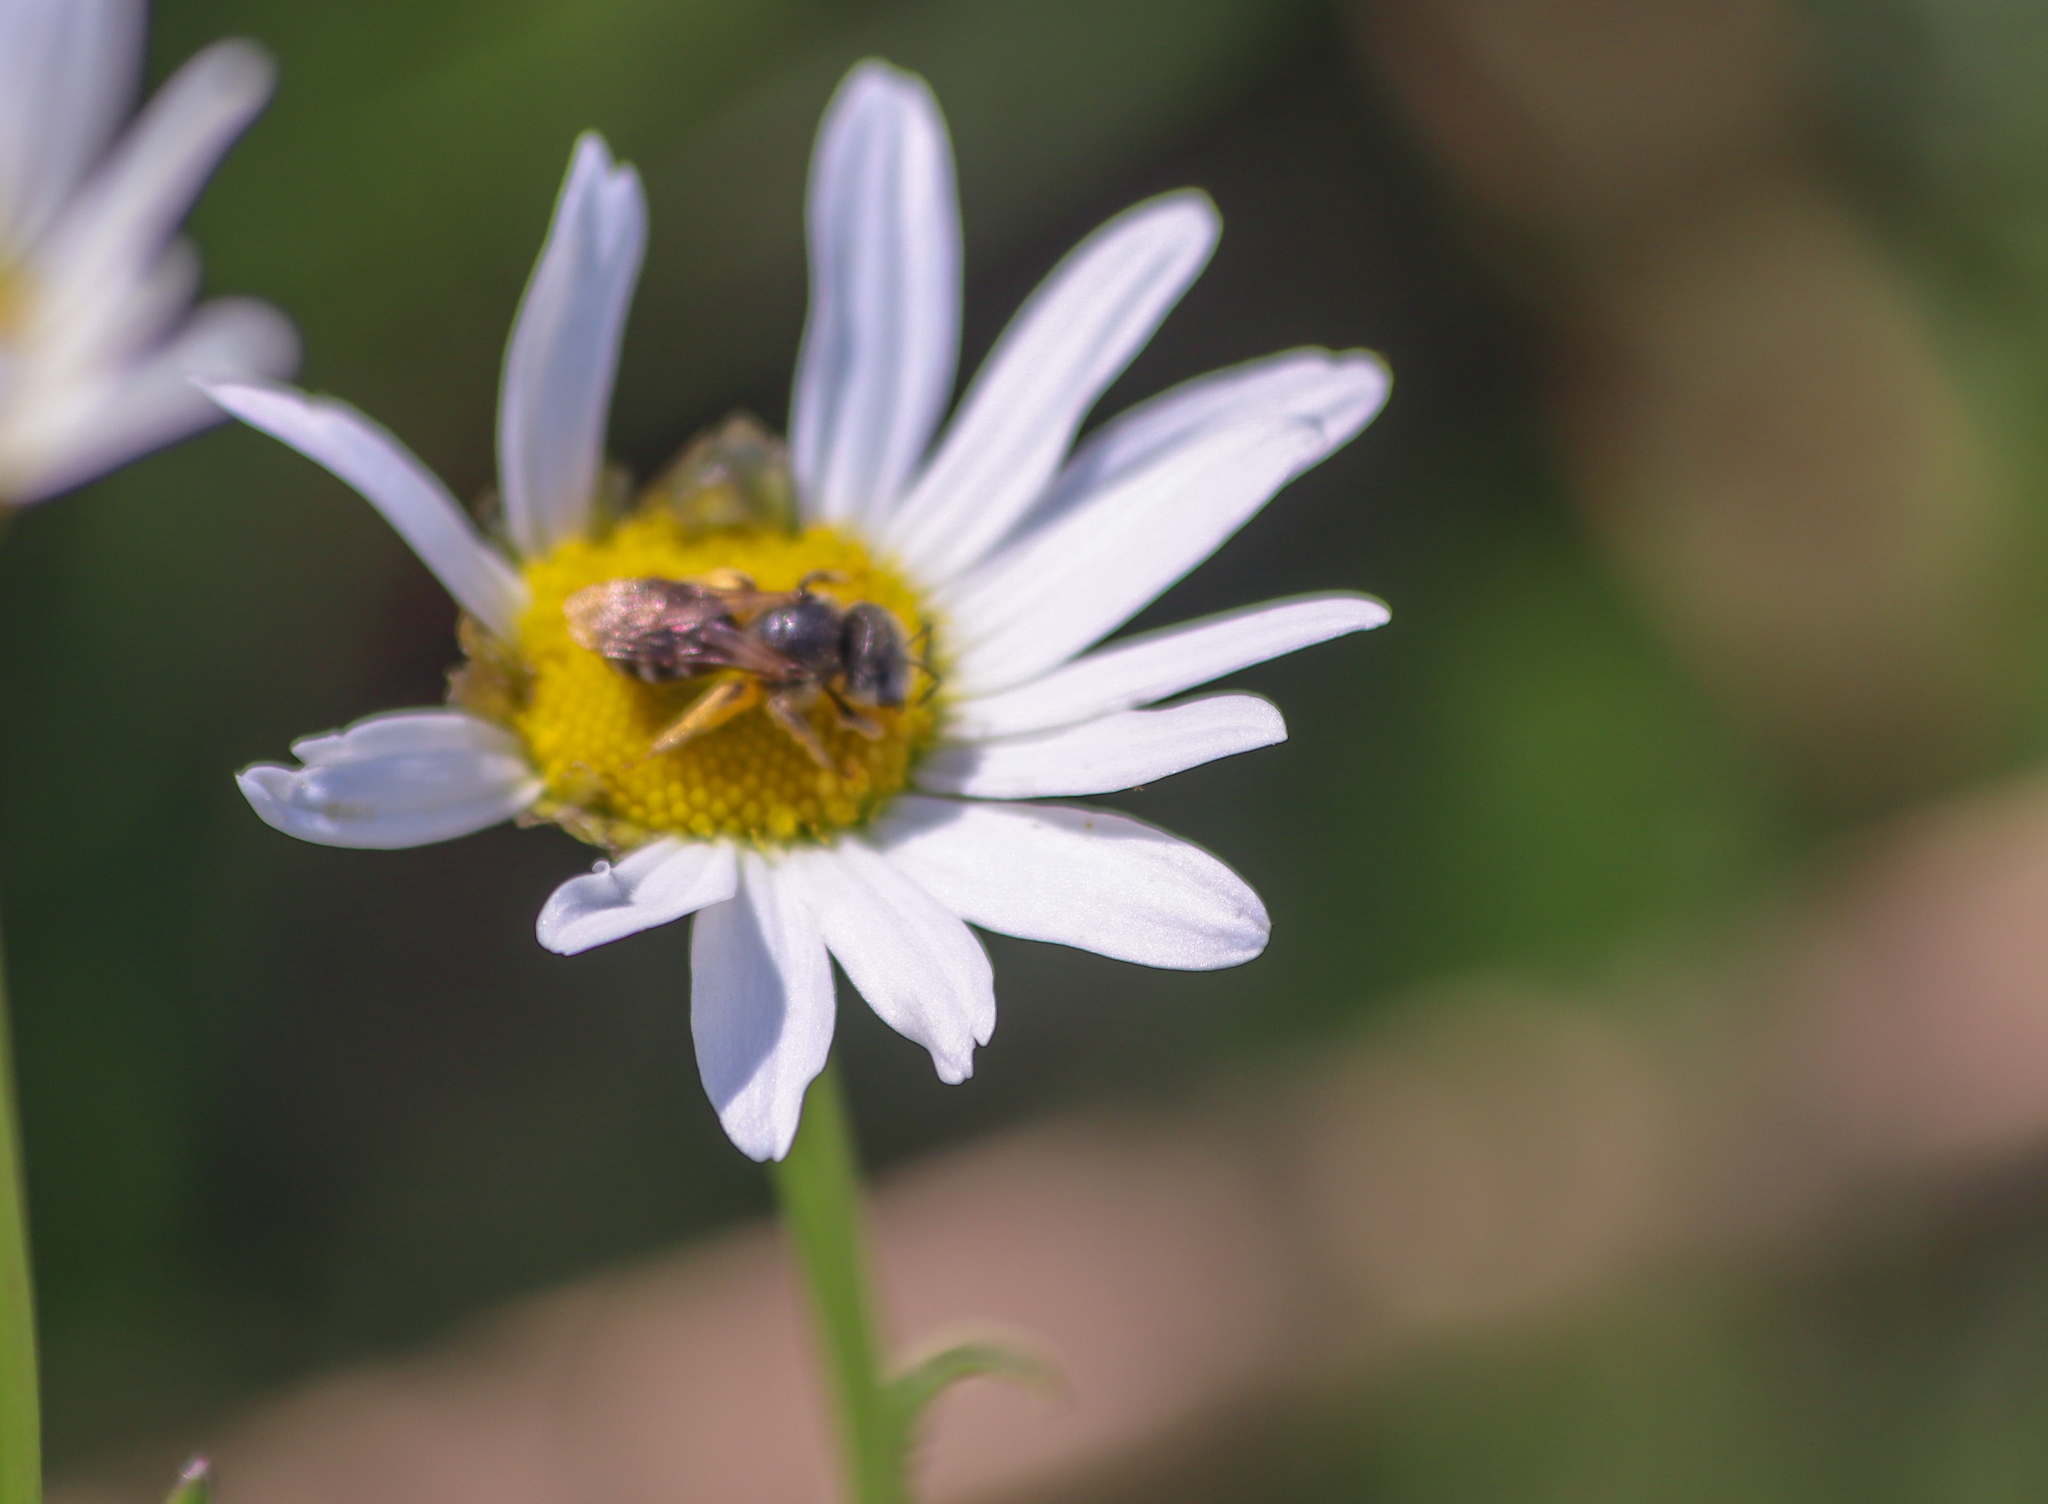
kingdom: Animalia
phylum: Arthropoda
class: Insecta
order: Hymenoptera
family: Halictidae
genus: Halictus
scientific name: Halictus ligatus
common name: Ligated furrow bee
